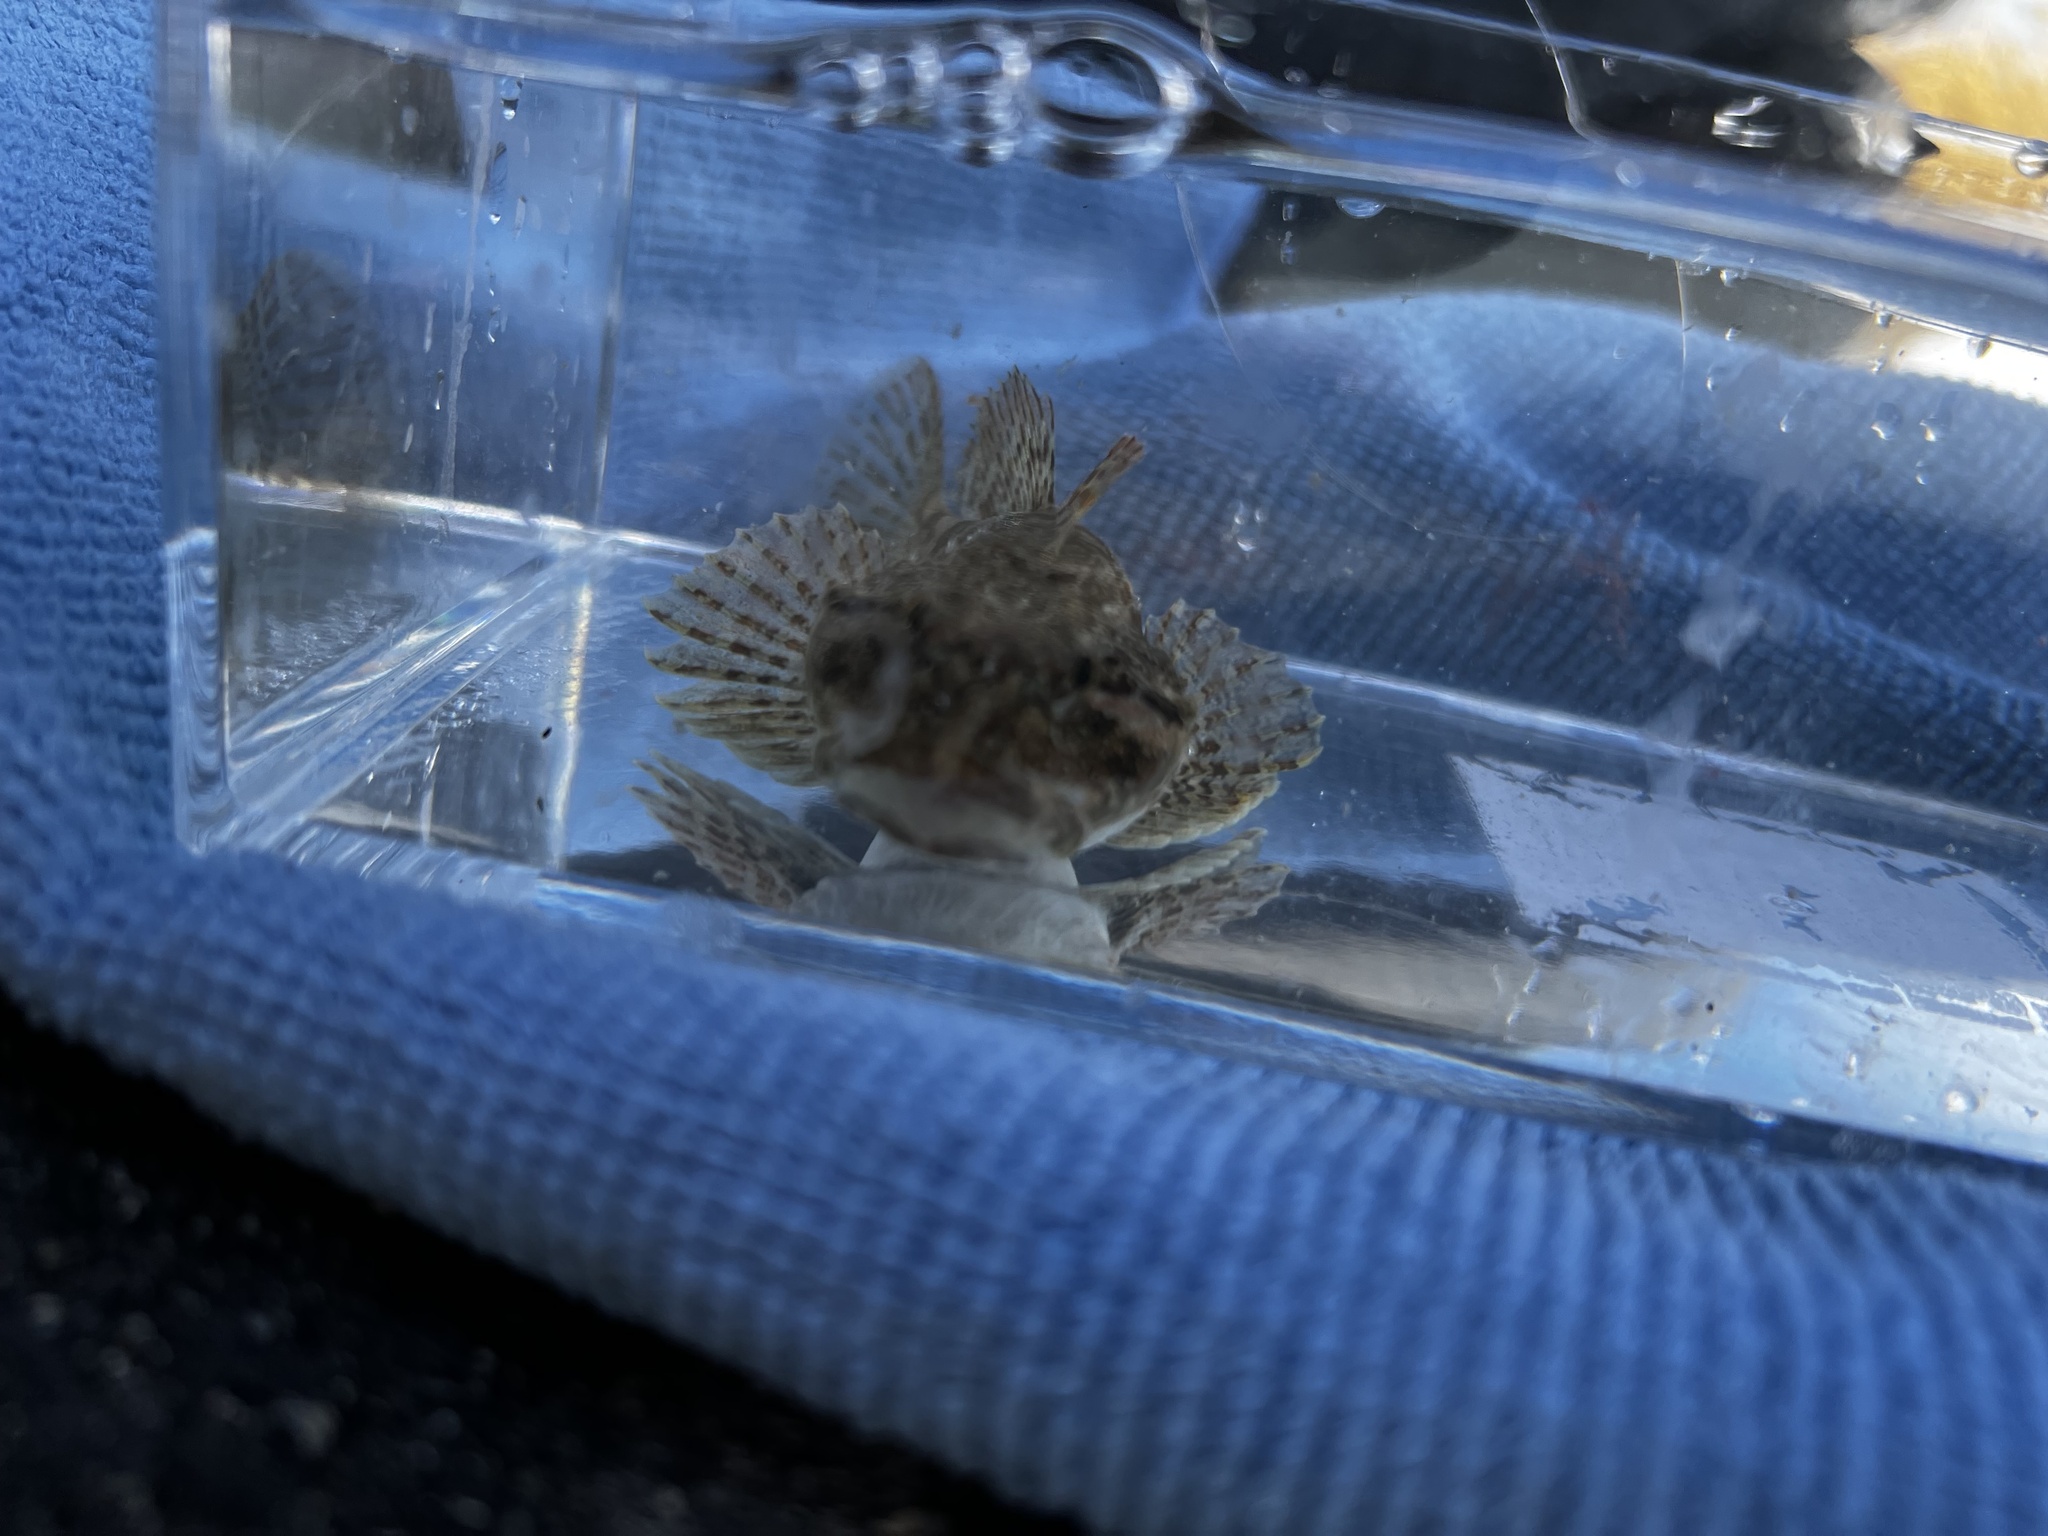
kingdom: Animalia
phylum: Chordata
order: Scorpaeniformes
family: Cottidae
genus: Artedius
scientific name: Artedius fenestralis
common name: Padded sculpin
